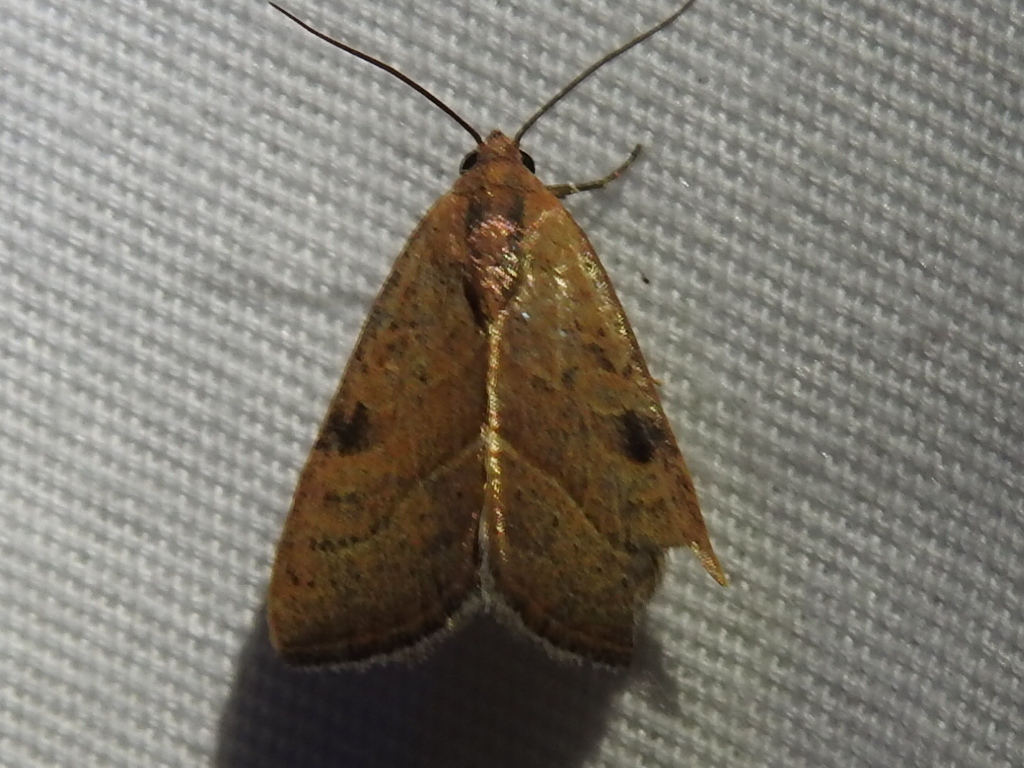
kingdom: Animalia
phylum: Arthropoda
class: Insecta
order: Lepidoptera
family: Noctuidae
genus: Galgula
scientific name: Galgula partita
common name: Wedgeling
